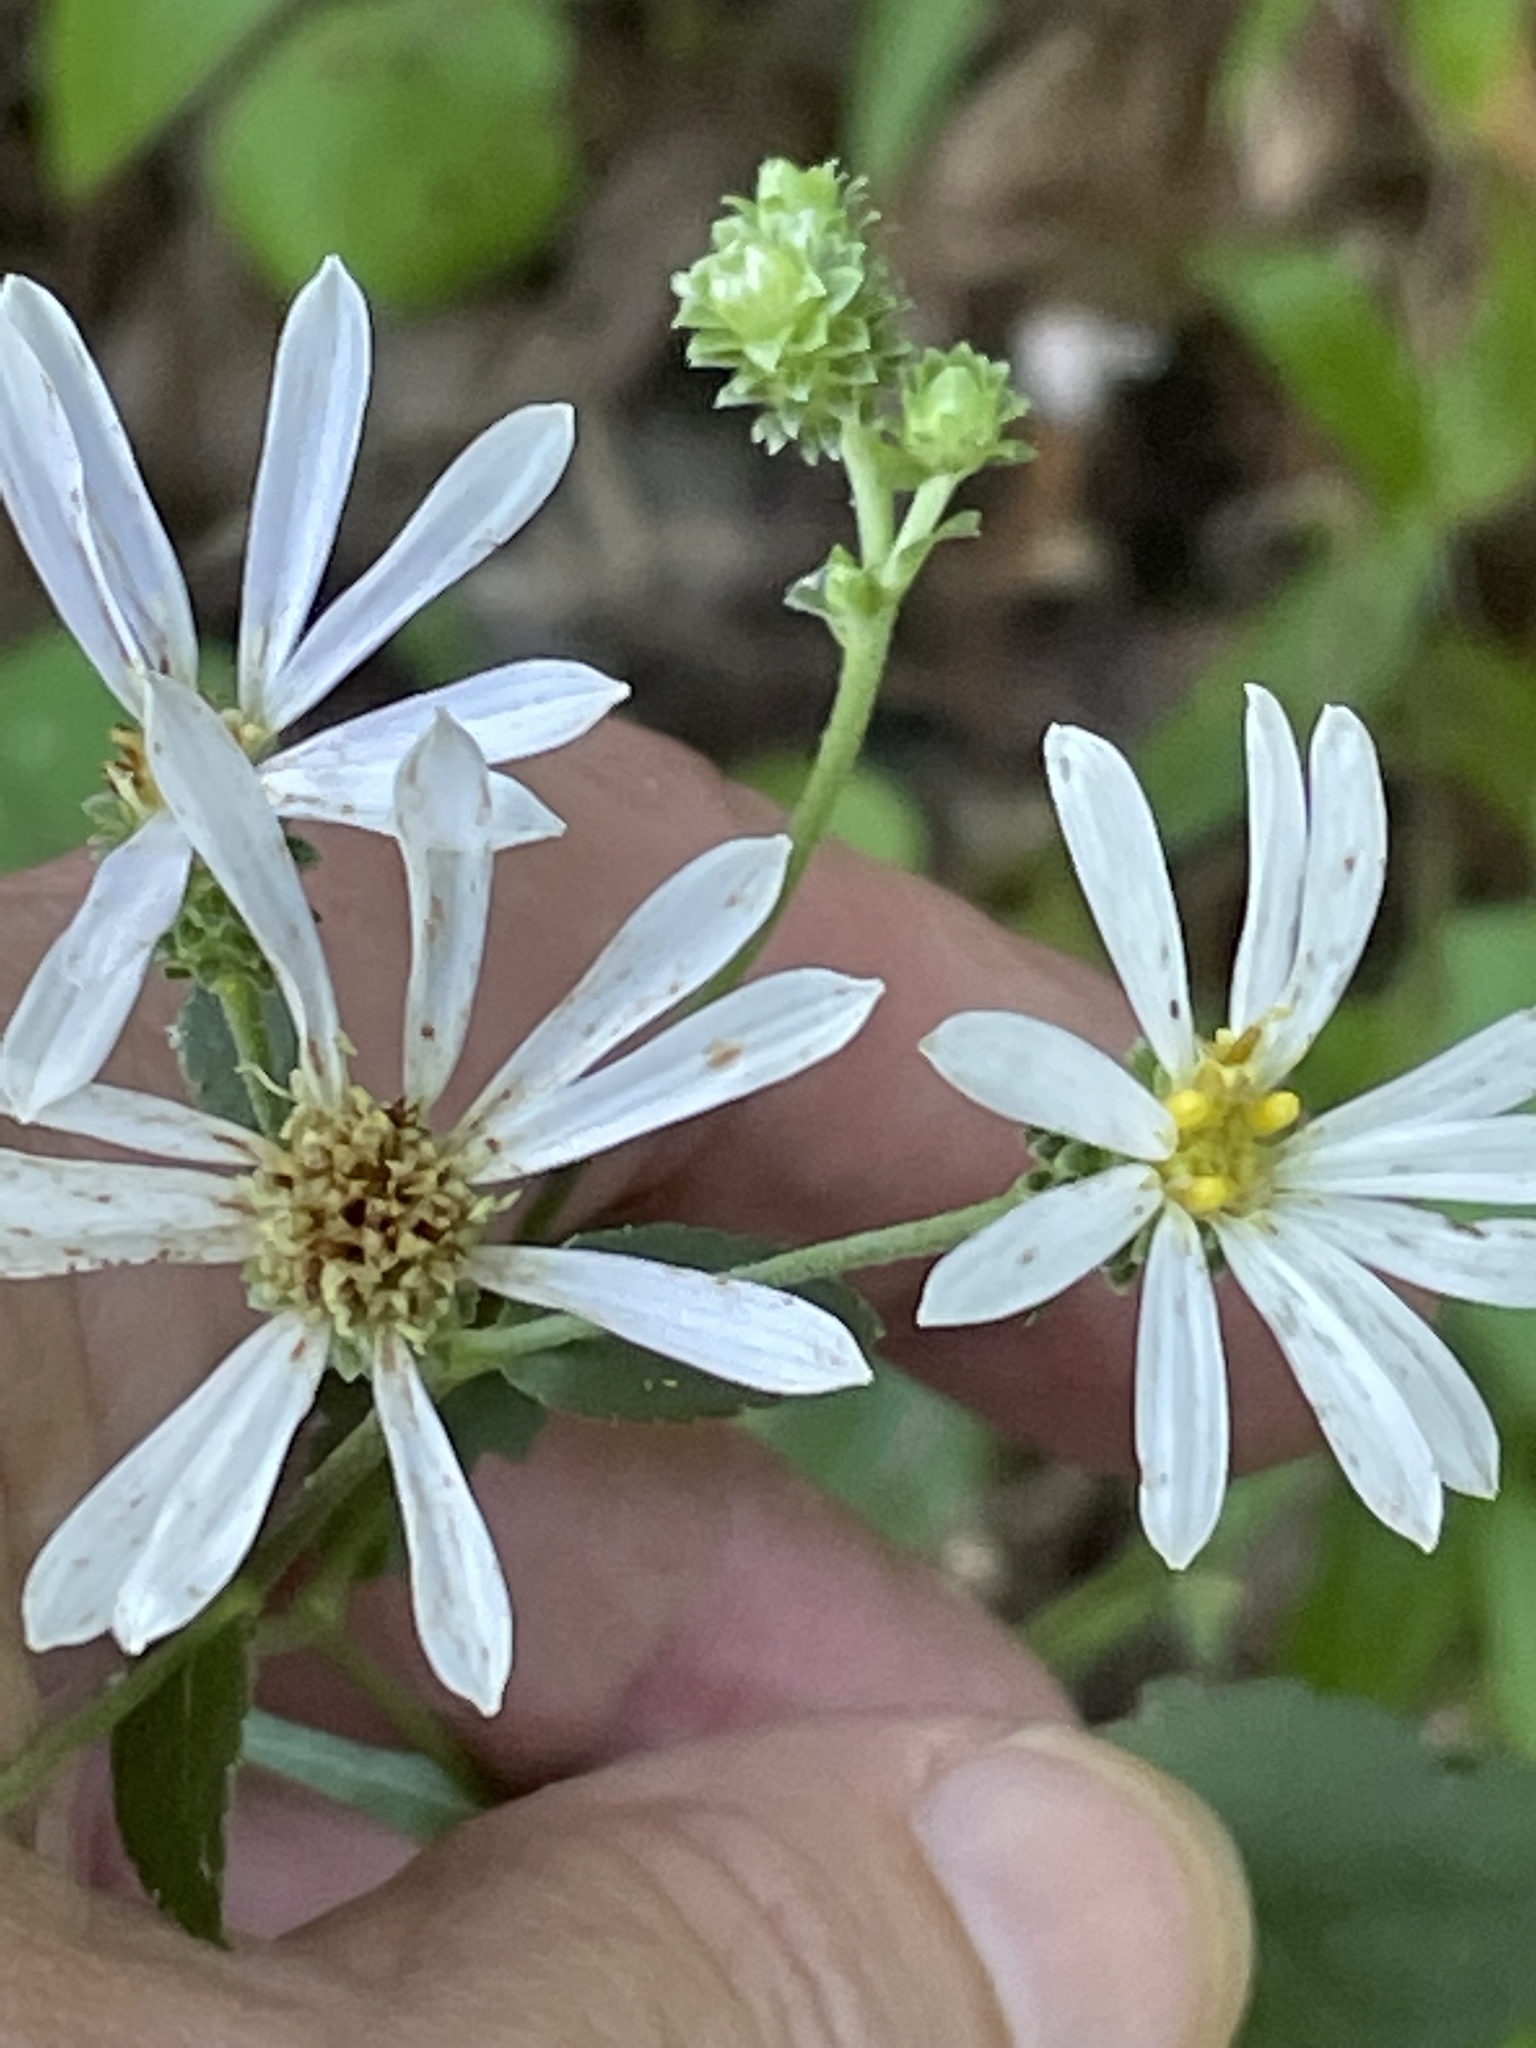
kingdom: Plantae
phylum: Tracheophyta
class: Magnoliopsida
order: Asterales
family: Asteraceae
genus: Eurybia
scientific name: Eurybia mirabilis
